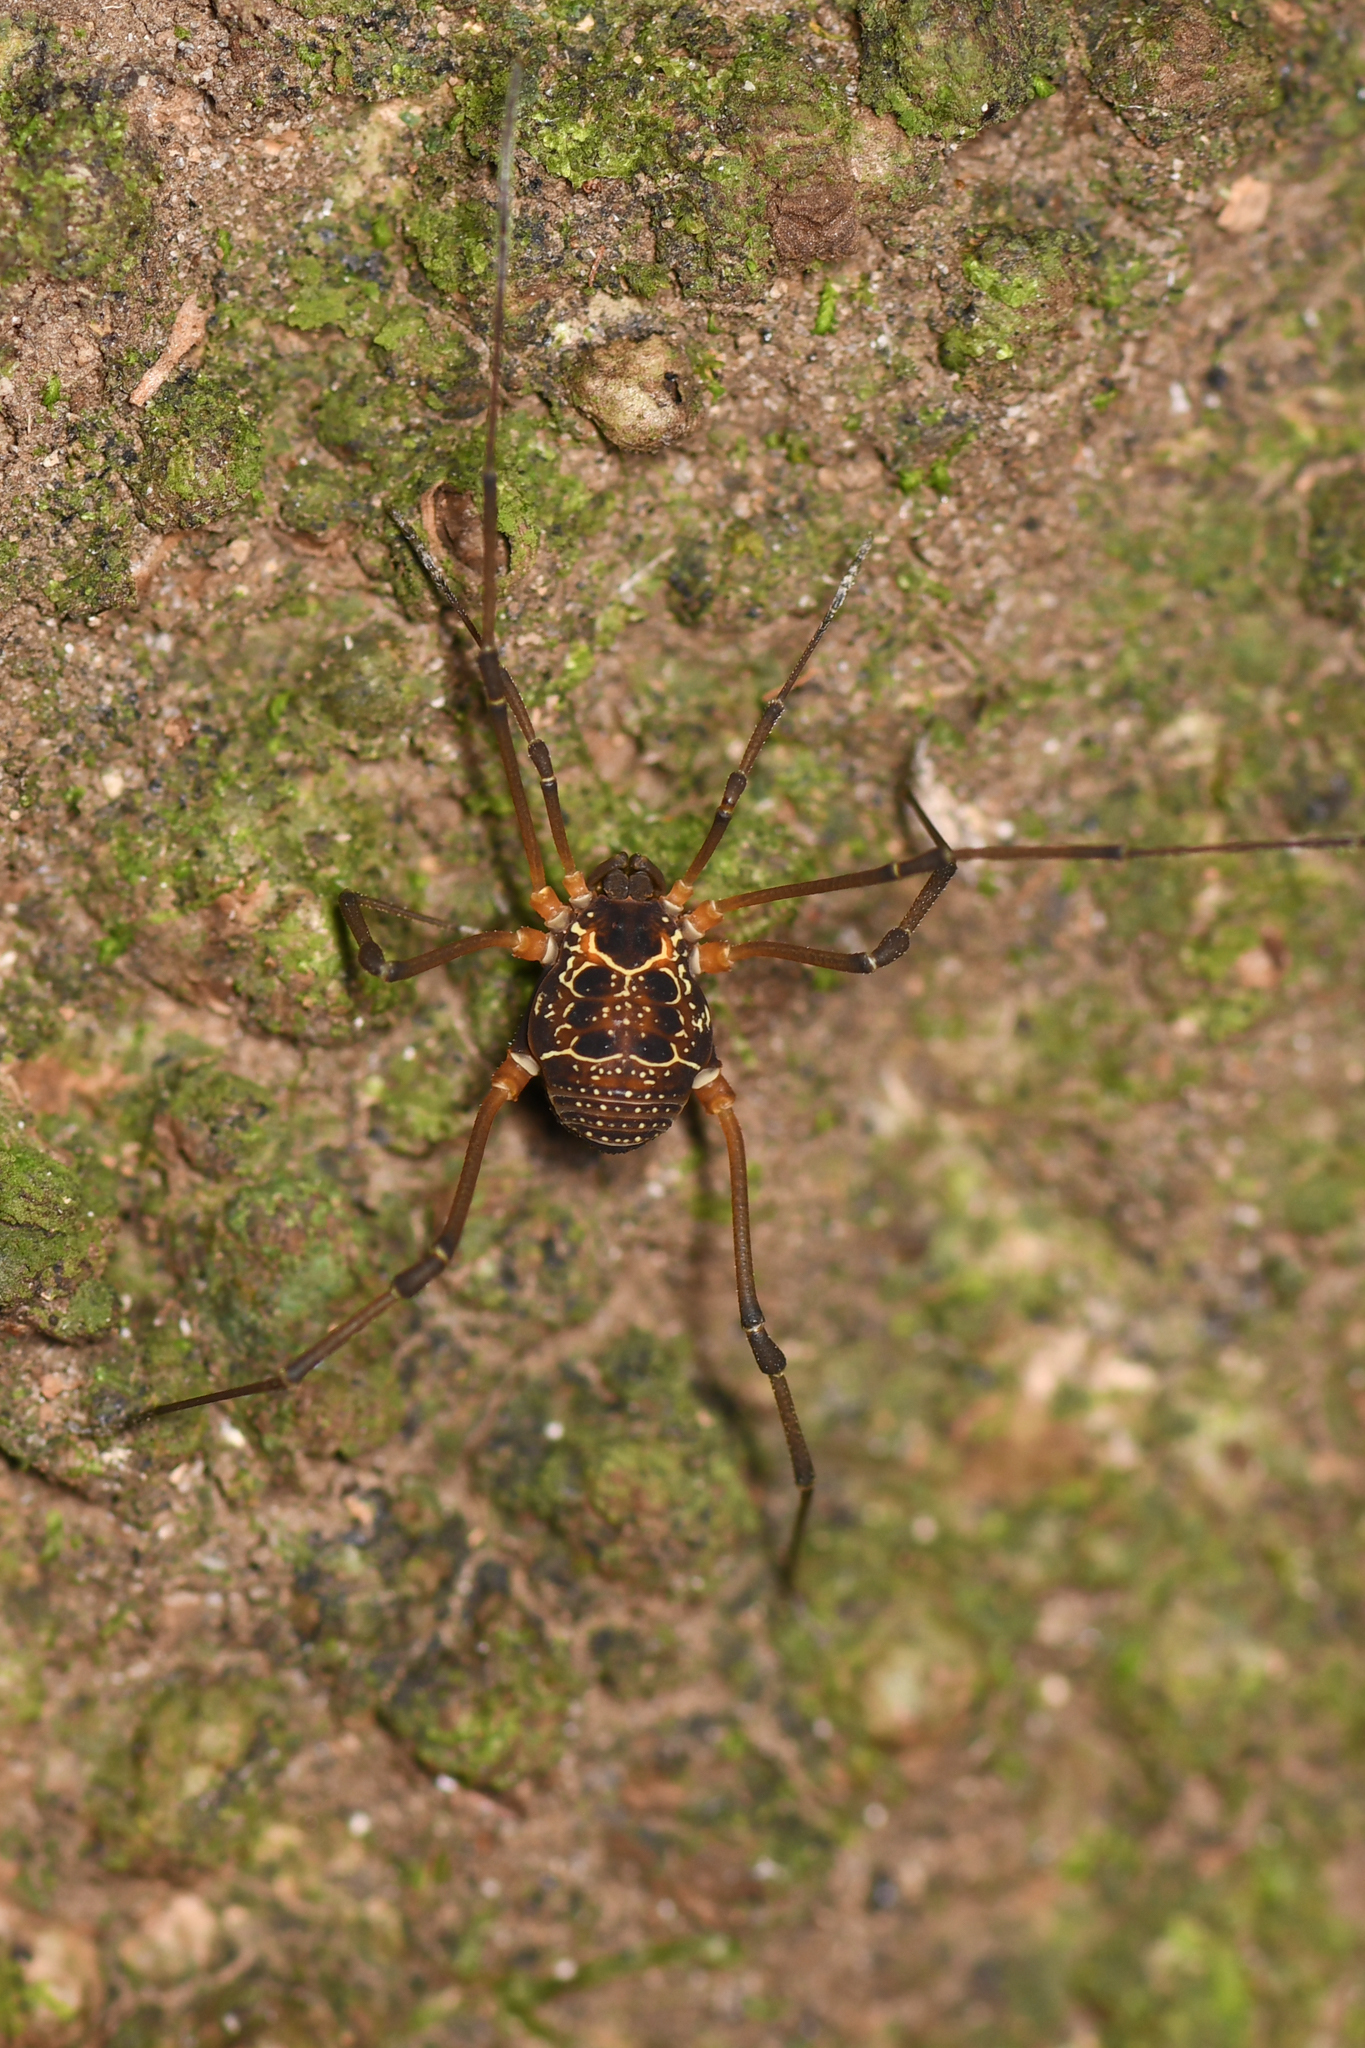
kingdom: Animalia
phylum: Arthropoda
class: Arachnida
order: Opiliones
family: Cosmetidae
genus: Eucynortula
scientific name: Eucynortula albipunctata
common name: Harvestmen
